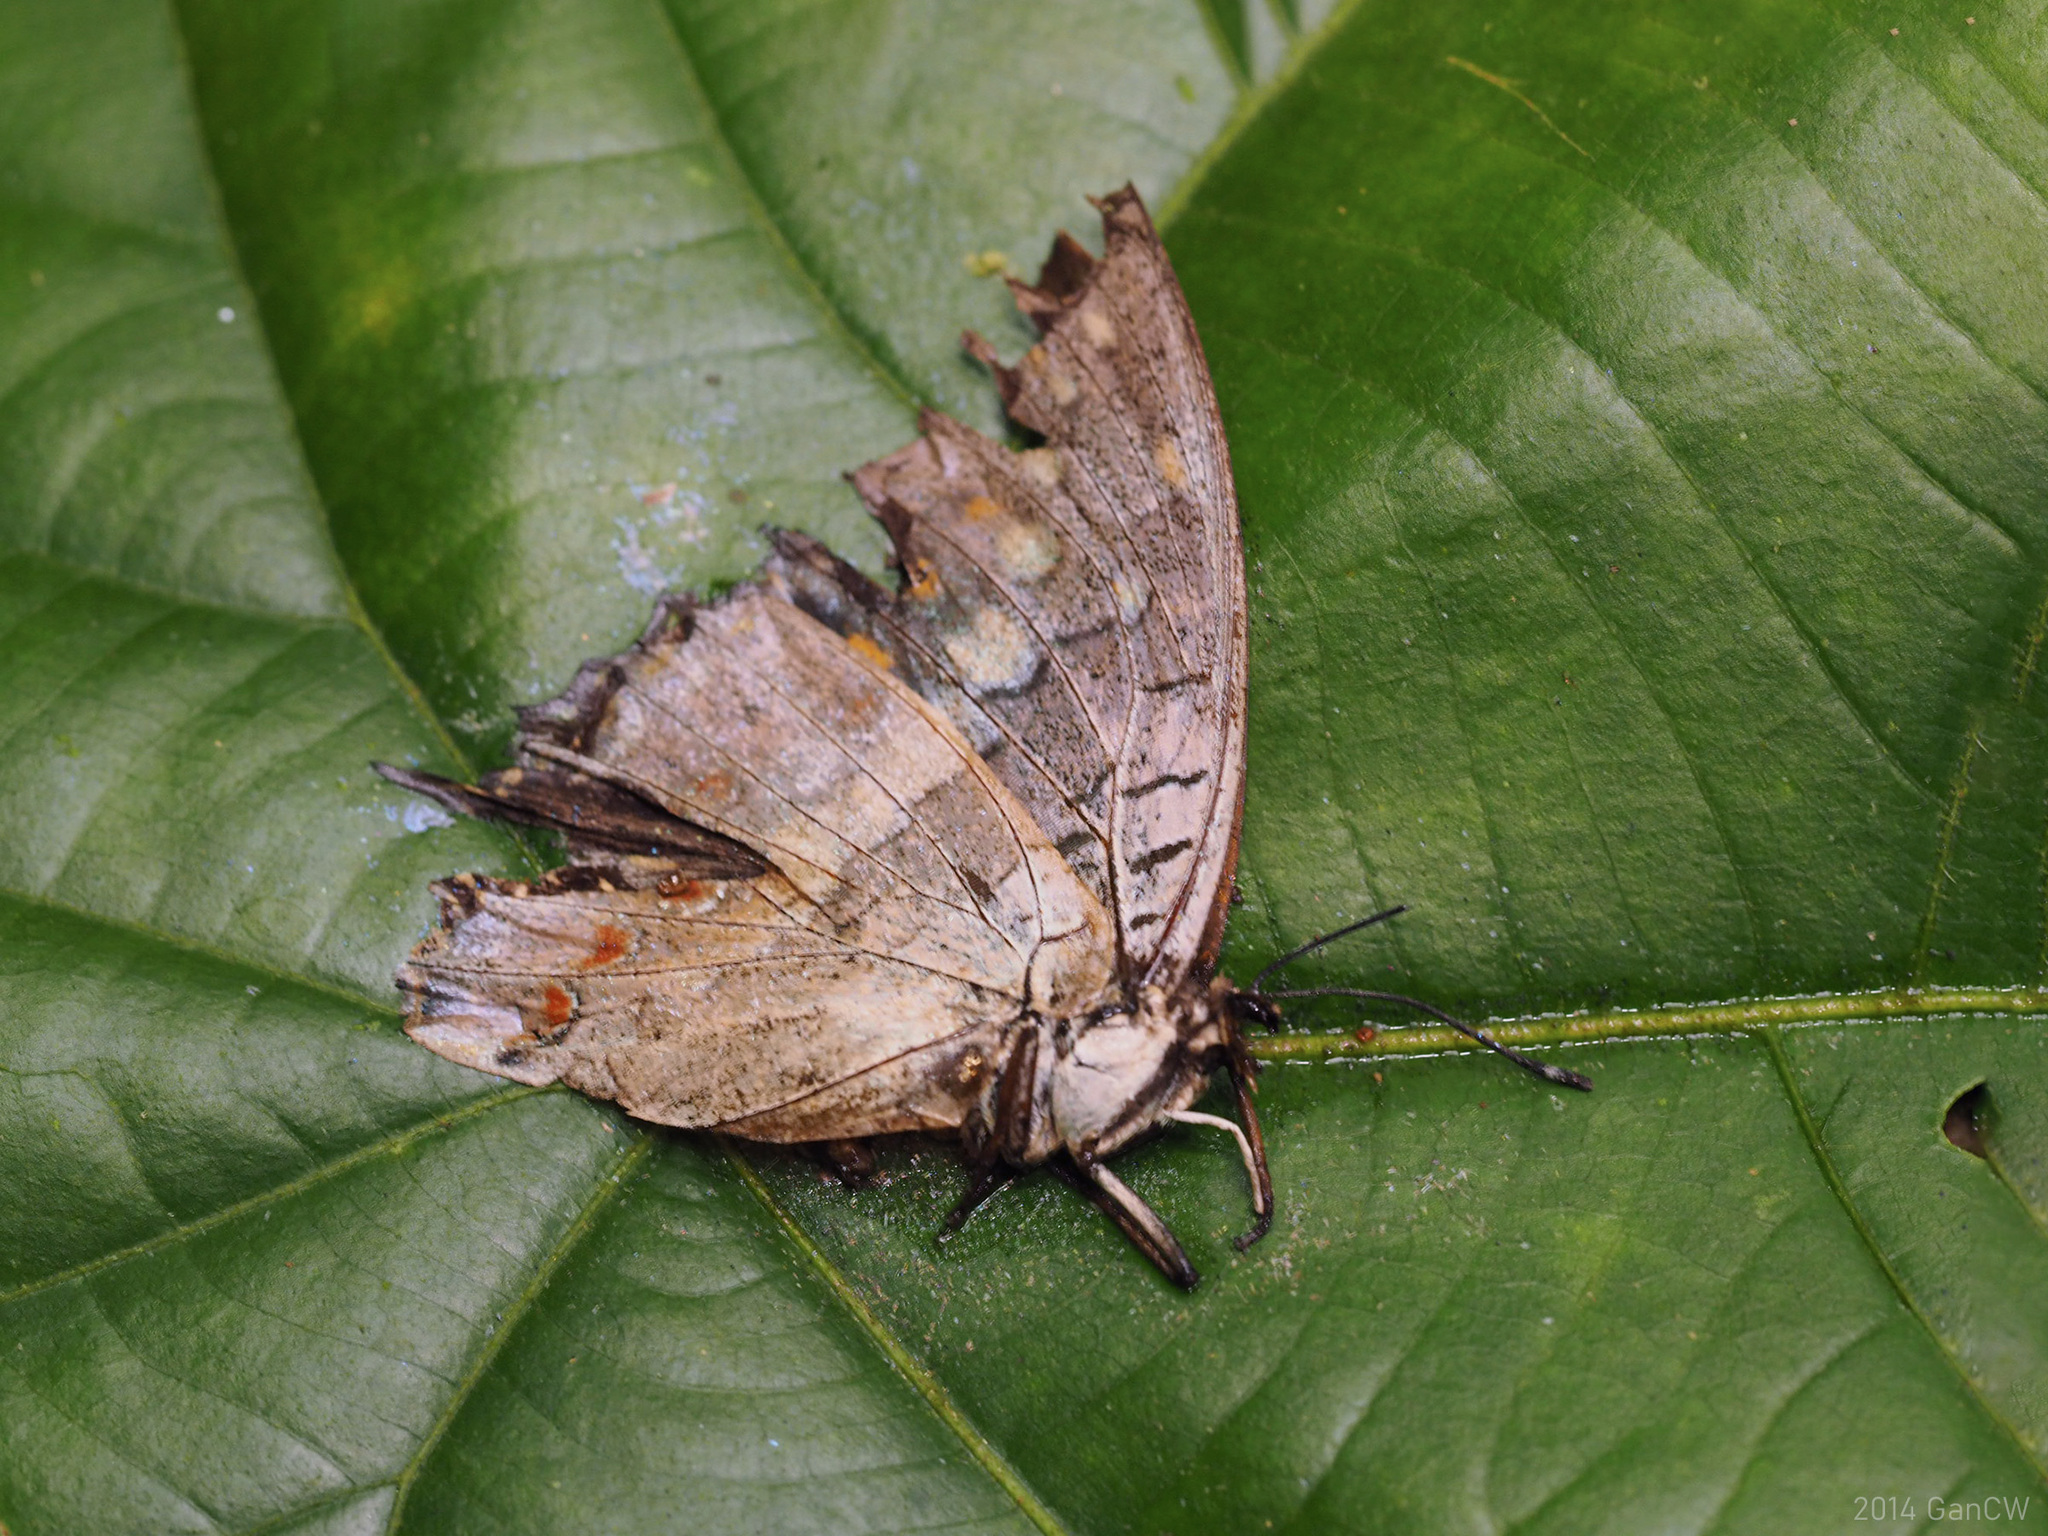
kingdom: Animalia
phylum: Arthropoda
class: Insecta
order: Lepidoptera
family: Nymphalidae
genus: Charaxes
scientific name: Charaxes solon
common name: Black rajah
